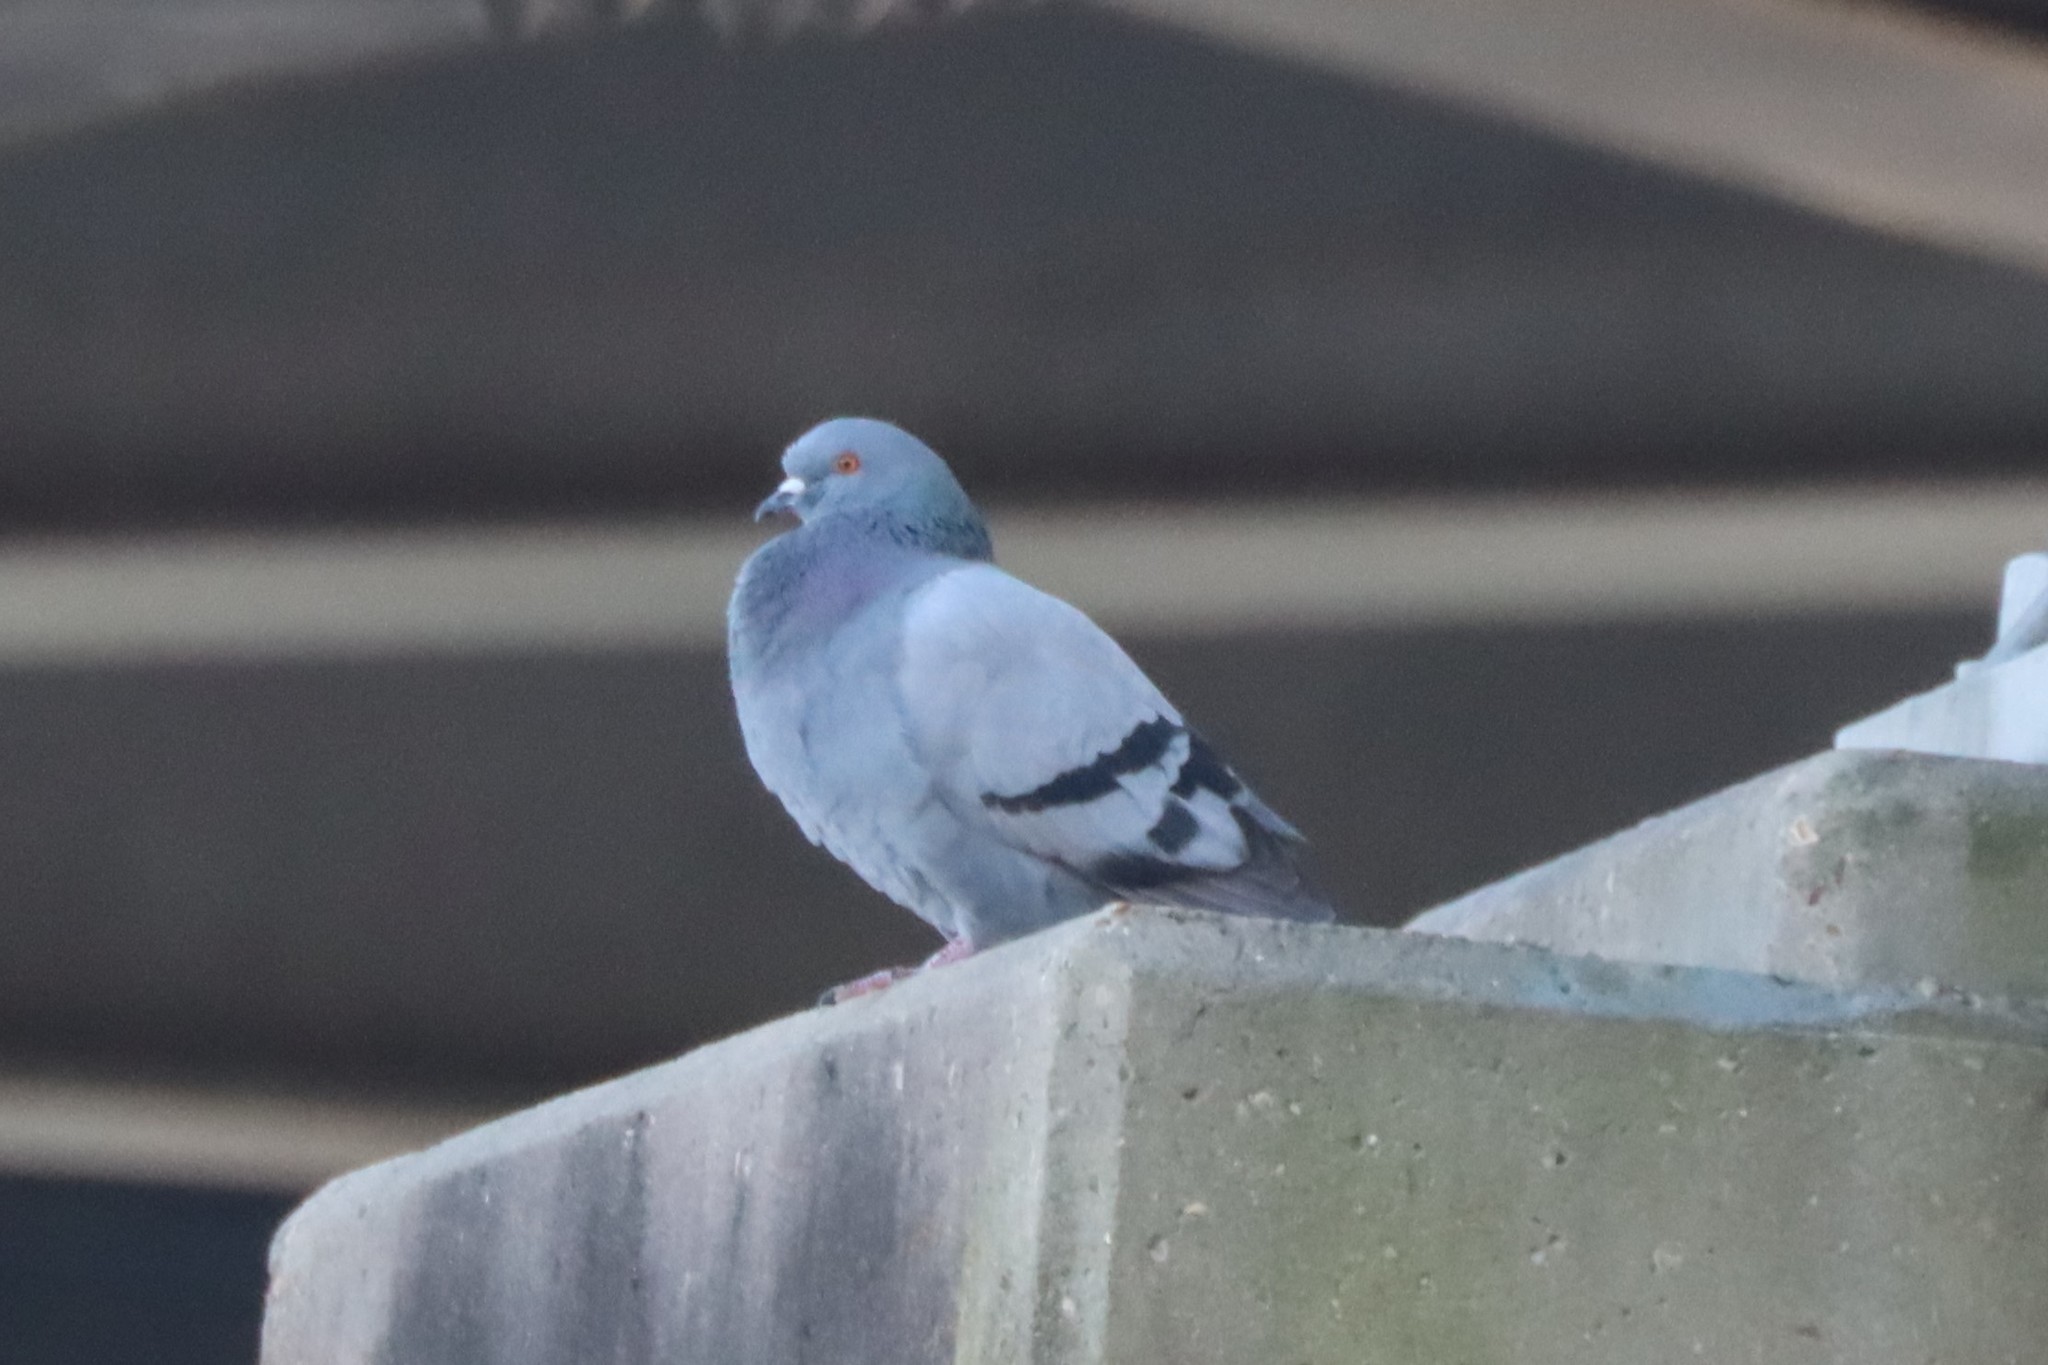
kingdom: Animalia
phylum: Chordata
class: Aves
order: Columbiformes
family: Columbidae
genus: Columba
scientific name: Columba livia
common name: Rock pigeon
